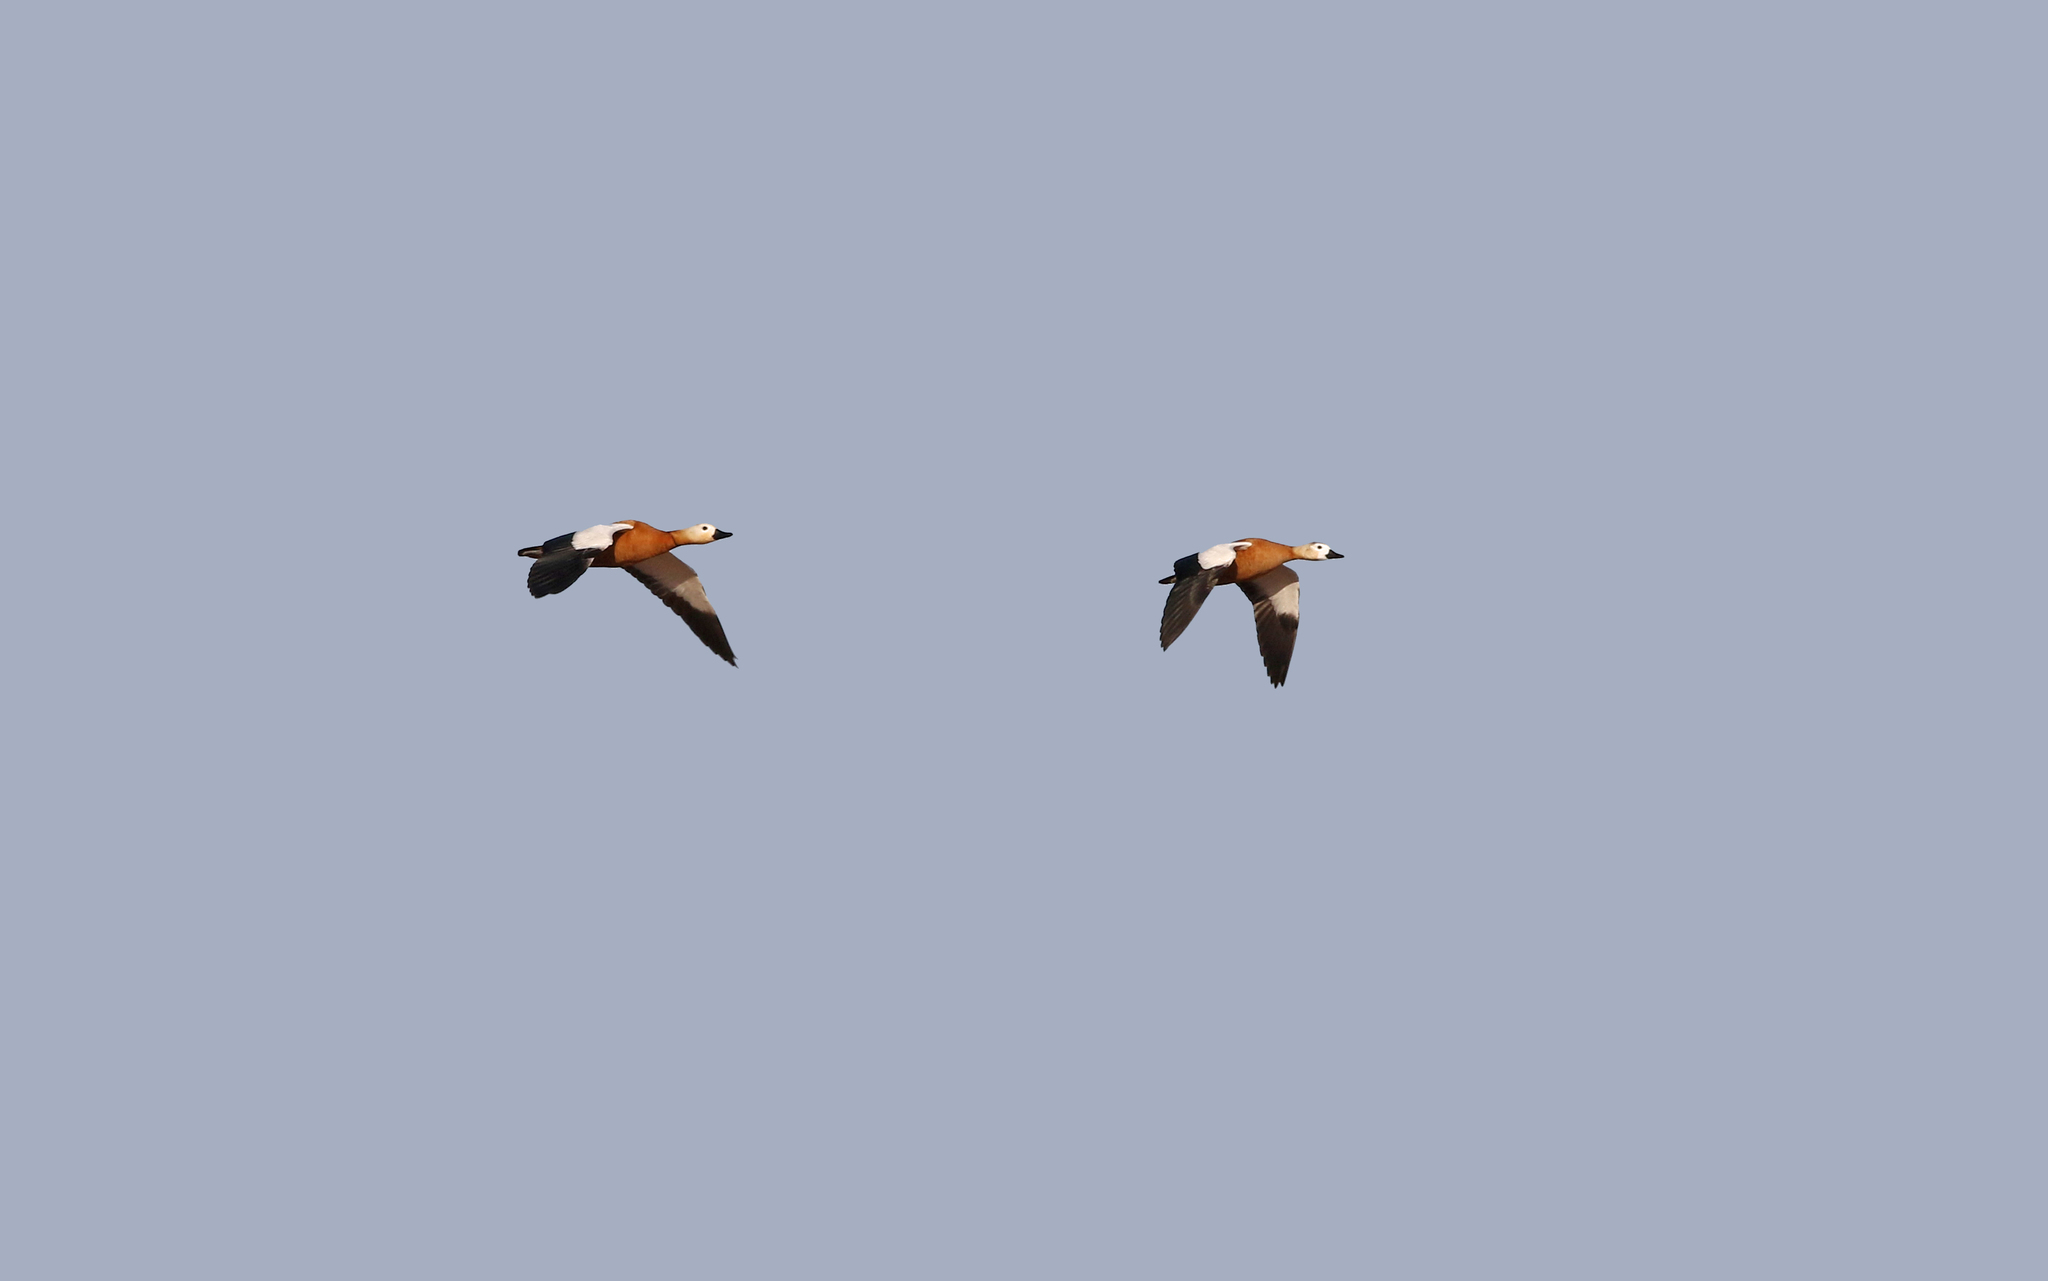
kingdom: Animalia
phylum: Chordata
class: Aves
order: Anseriformes
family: Anatidae
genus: Tadorna
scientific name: Tadorna ferruginea
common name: Ruddy shelduck
